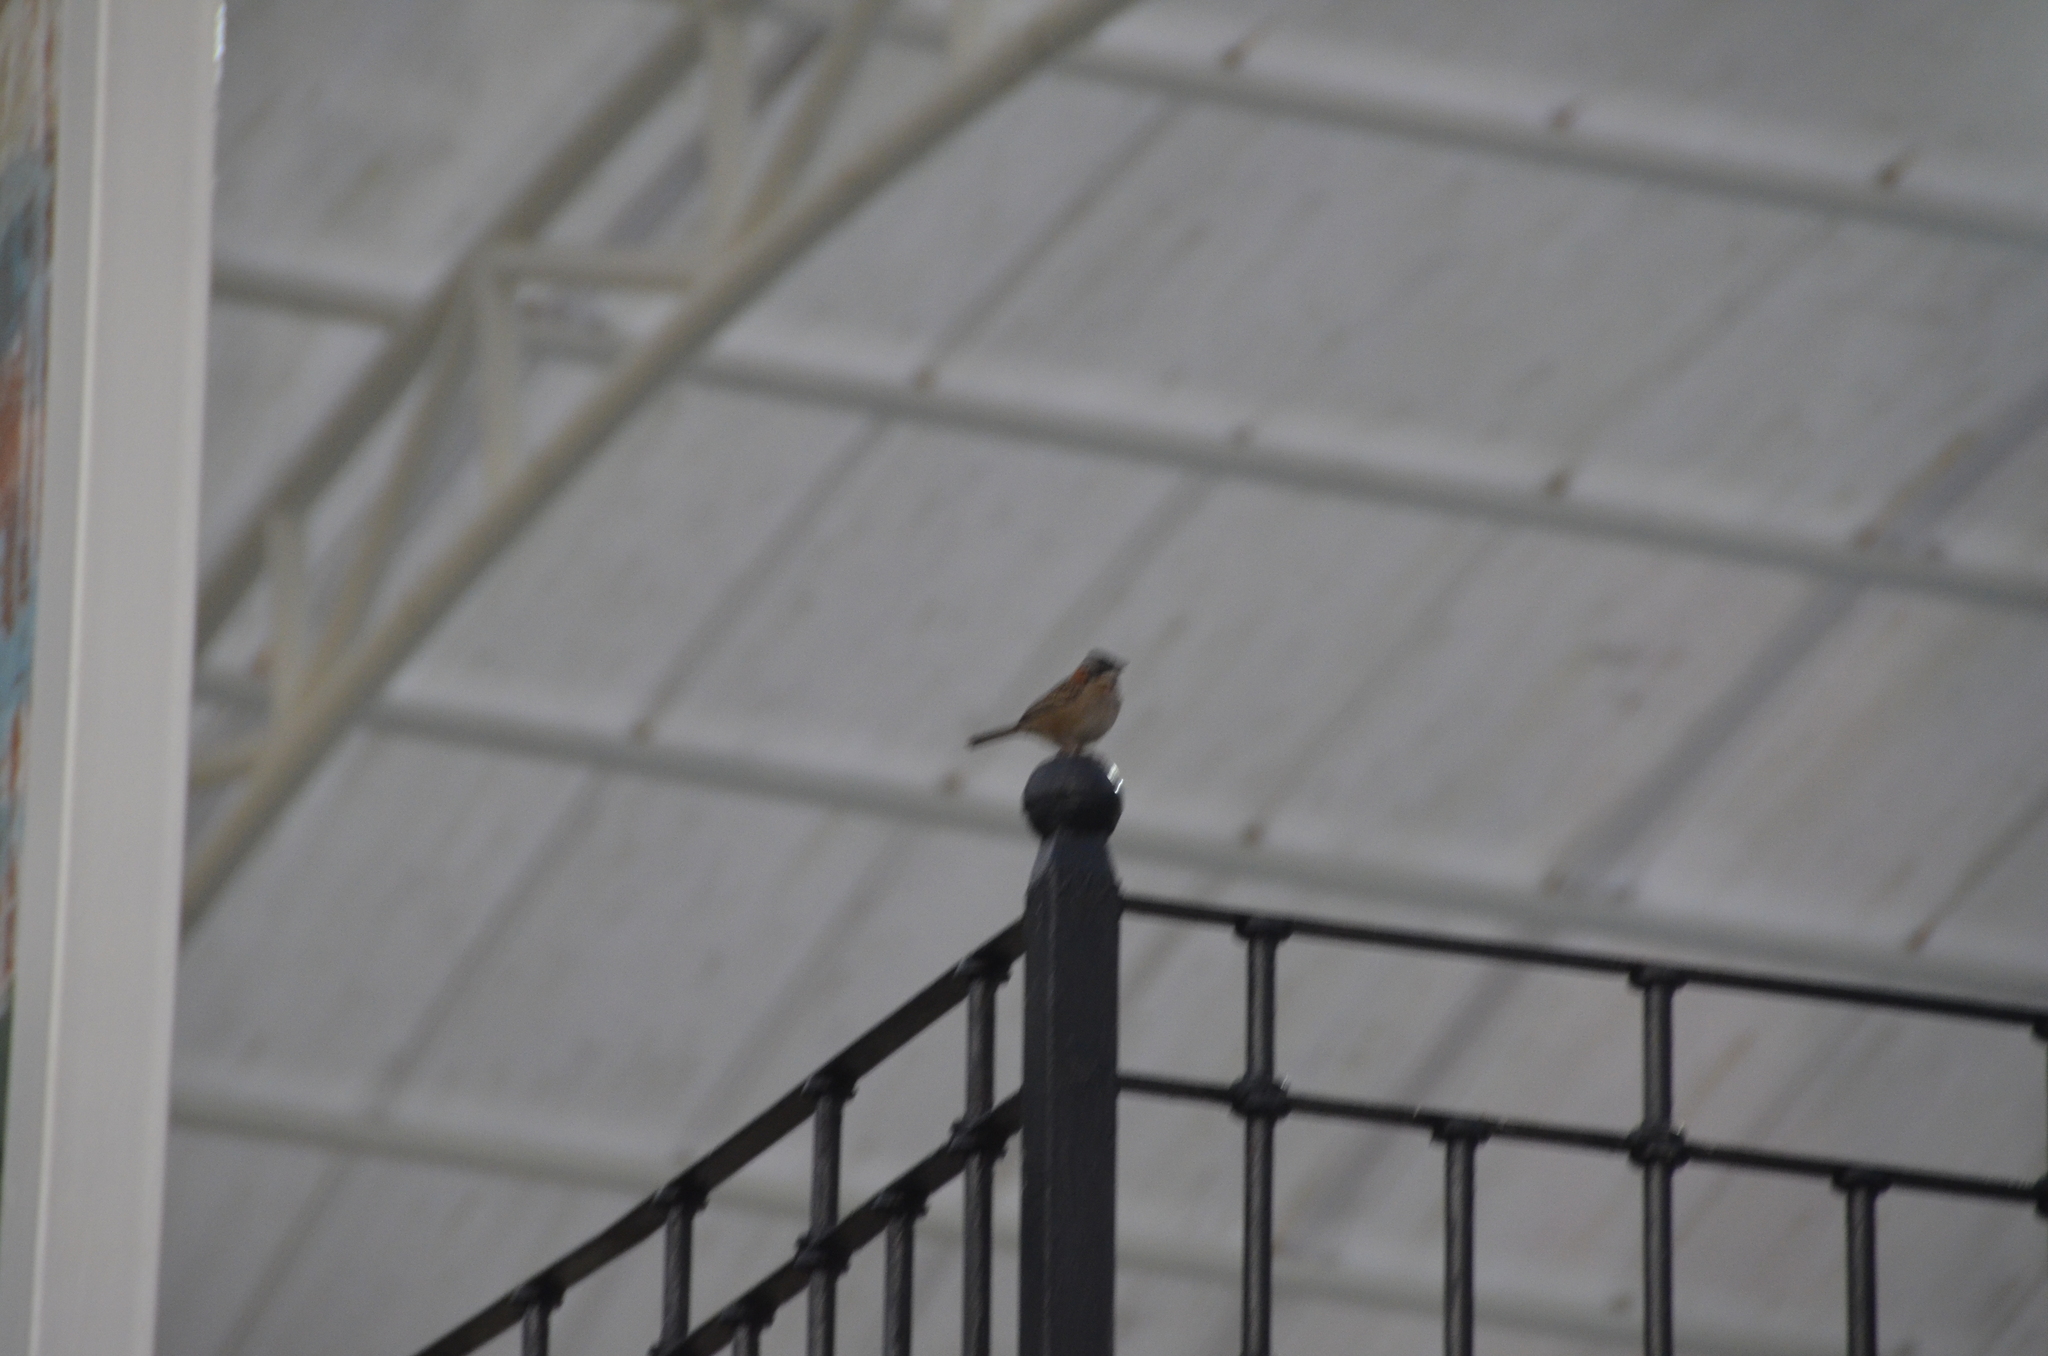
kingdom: Animalia
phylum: Chordata
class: Aves
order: Passeriformes
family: Passerellidae
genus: Zonotrichia
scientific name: Zonotrichia capensis
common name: Rufous-collared sparrow
